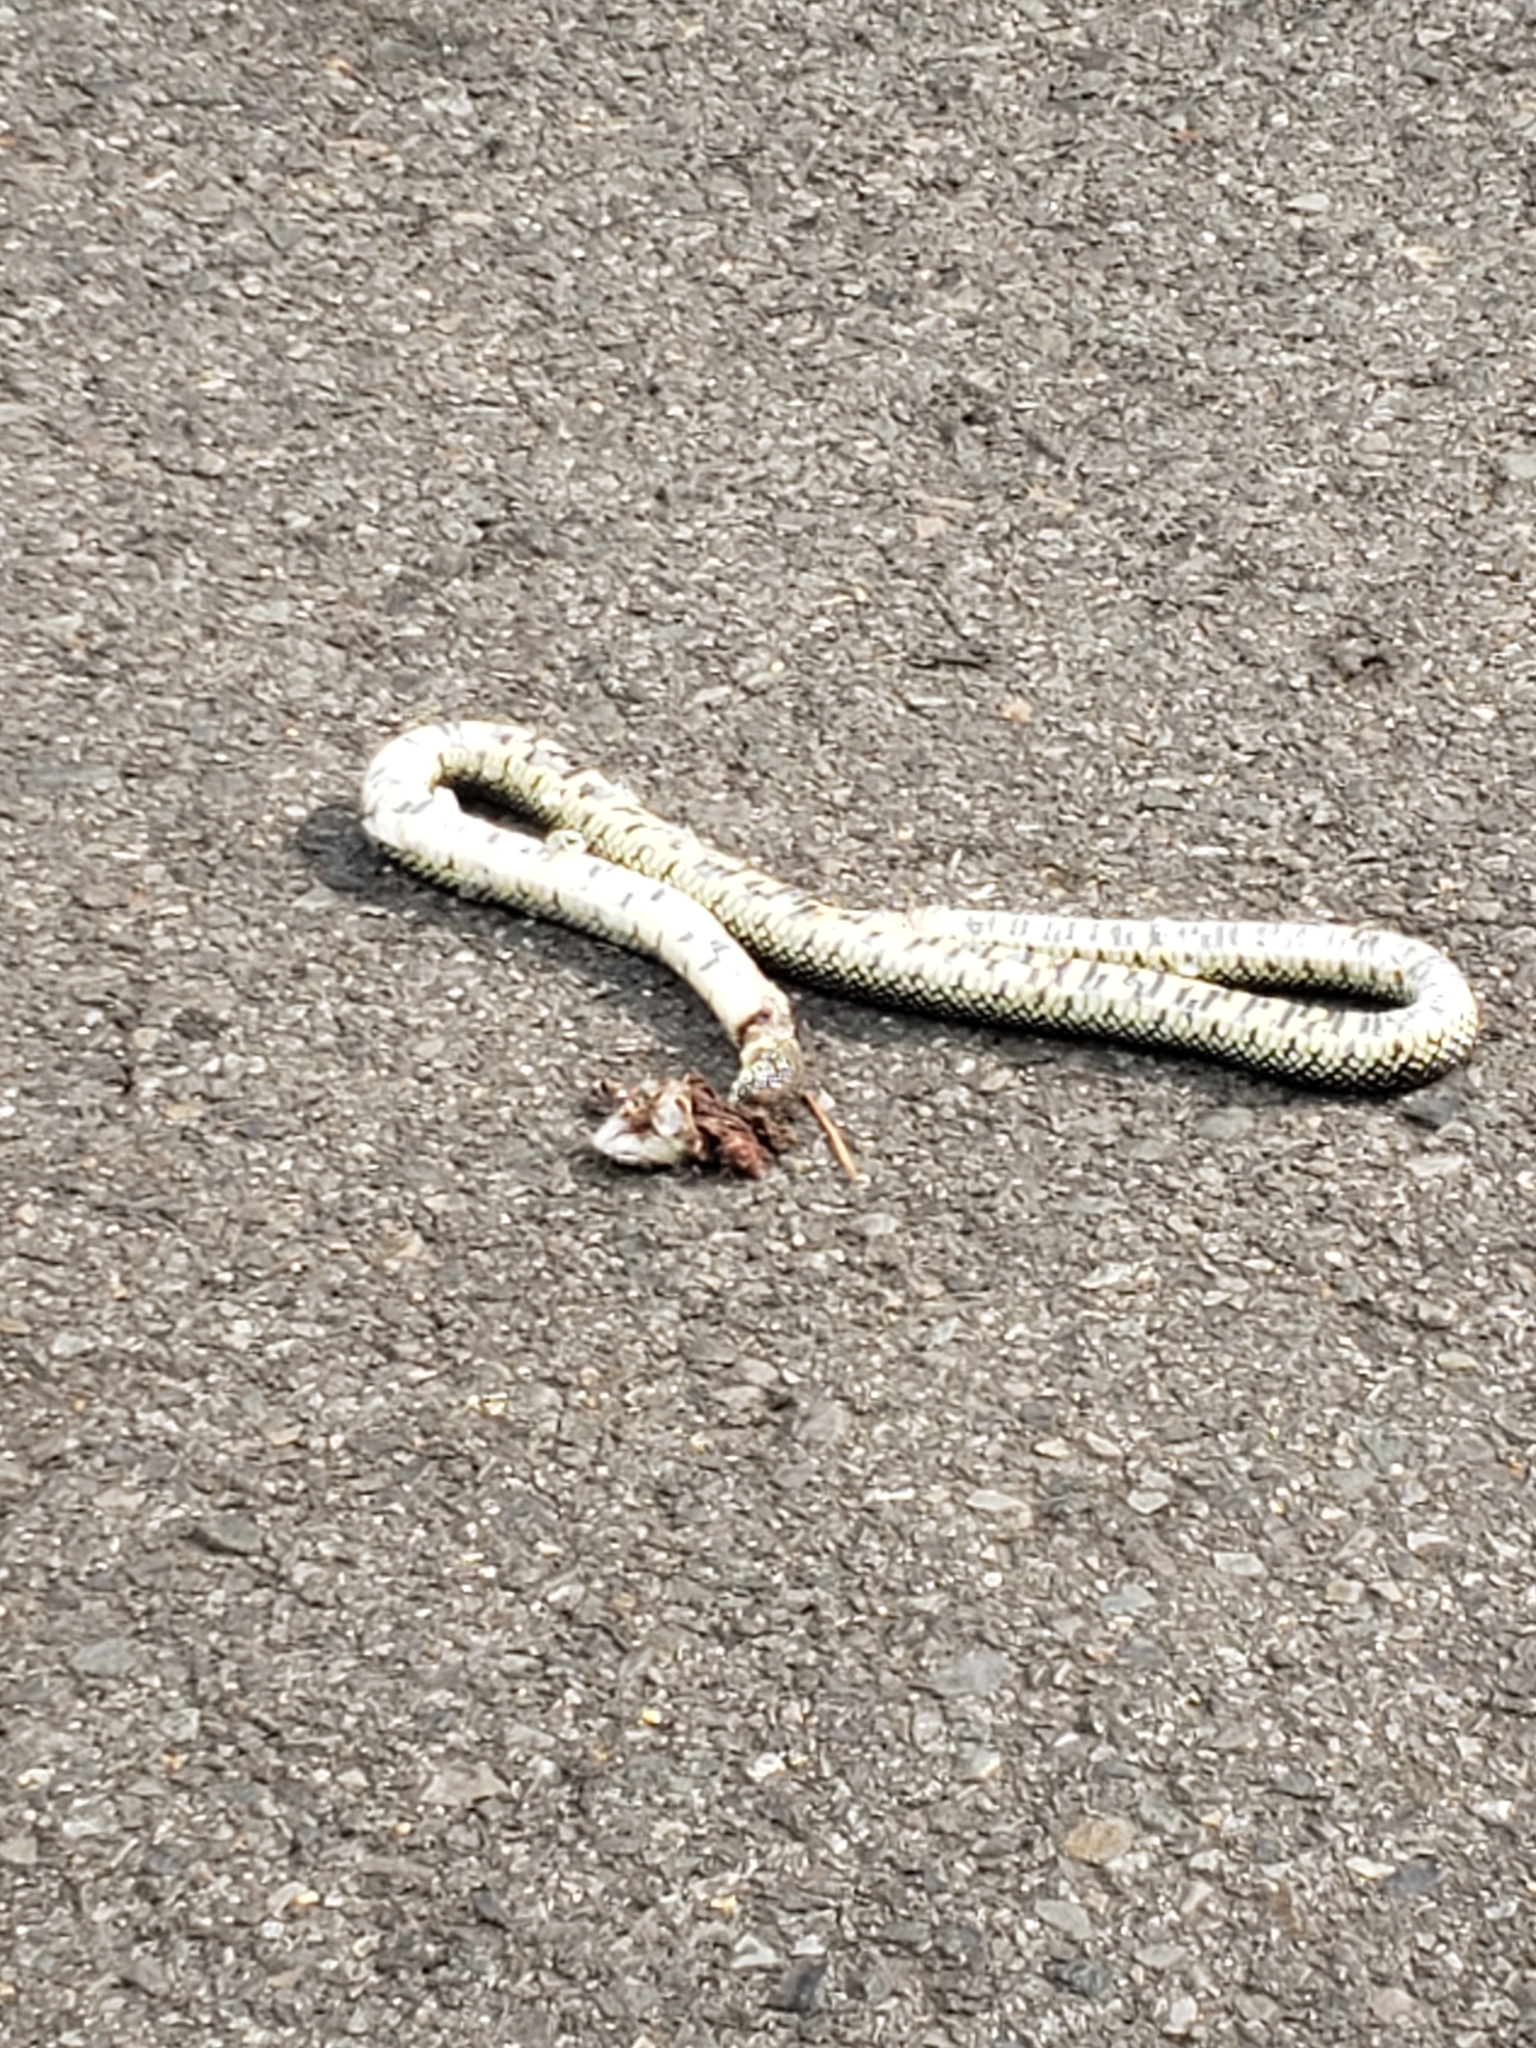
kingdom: Animalia
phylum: Chordata
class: Squamata
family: Colubridae
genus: Lampropeltis
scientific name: Lampropeltis holbrooki
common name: Speckled kingsnake
